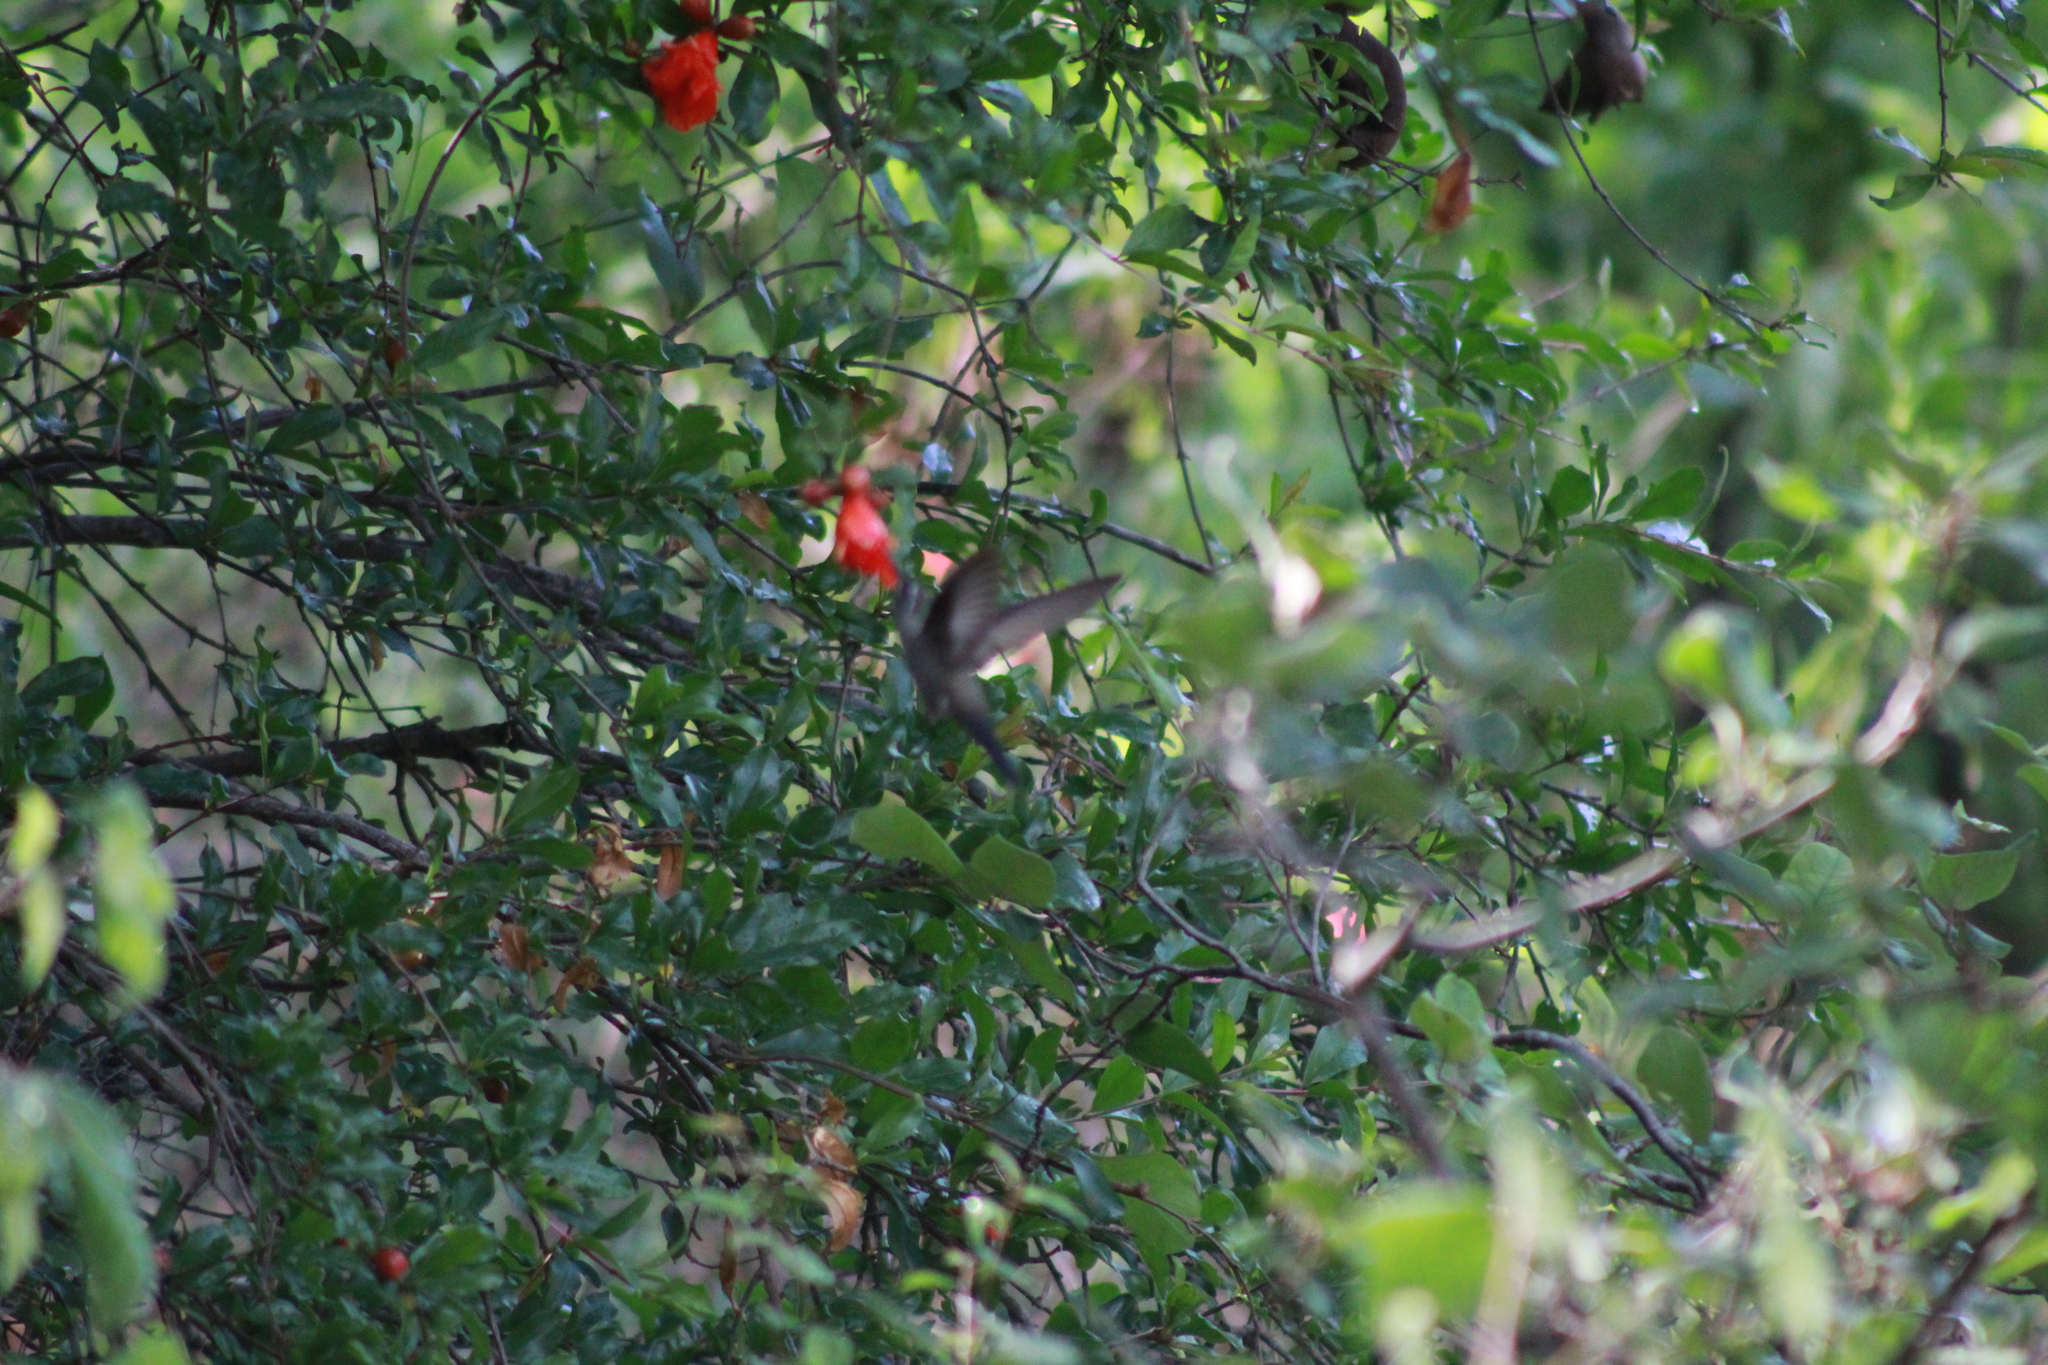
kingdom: Animalia
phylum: Chordata
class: Aves
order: Apodiformes
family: Trochilidae
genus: Cynanthus
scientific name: Cynanthus latirostris
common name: Broad-billed hummingbird
